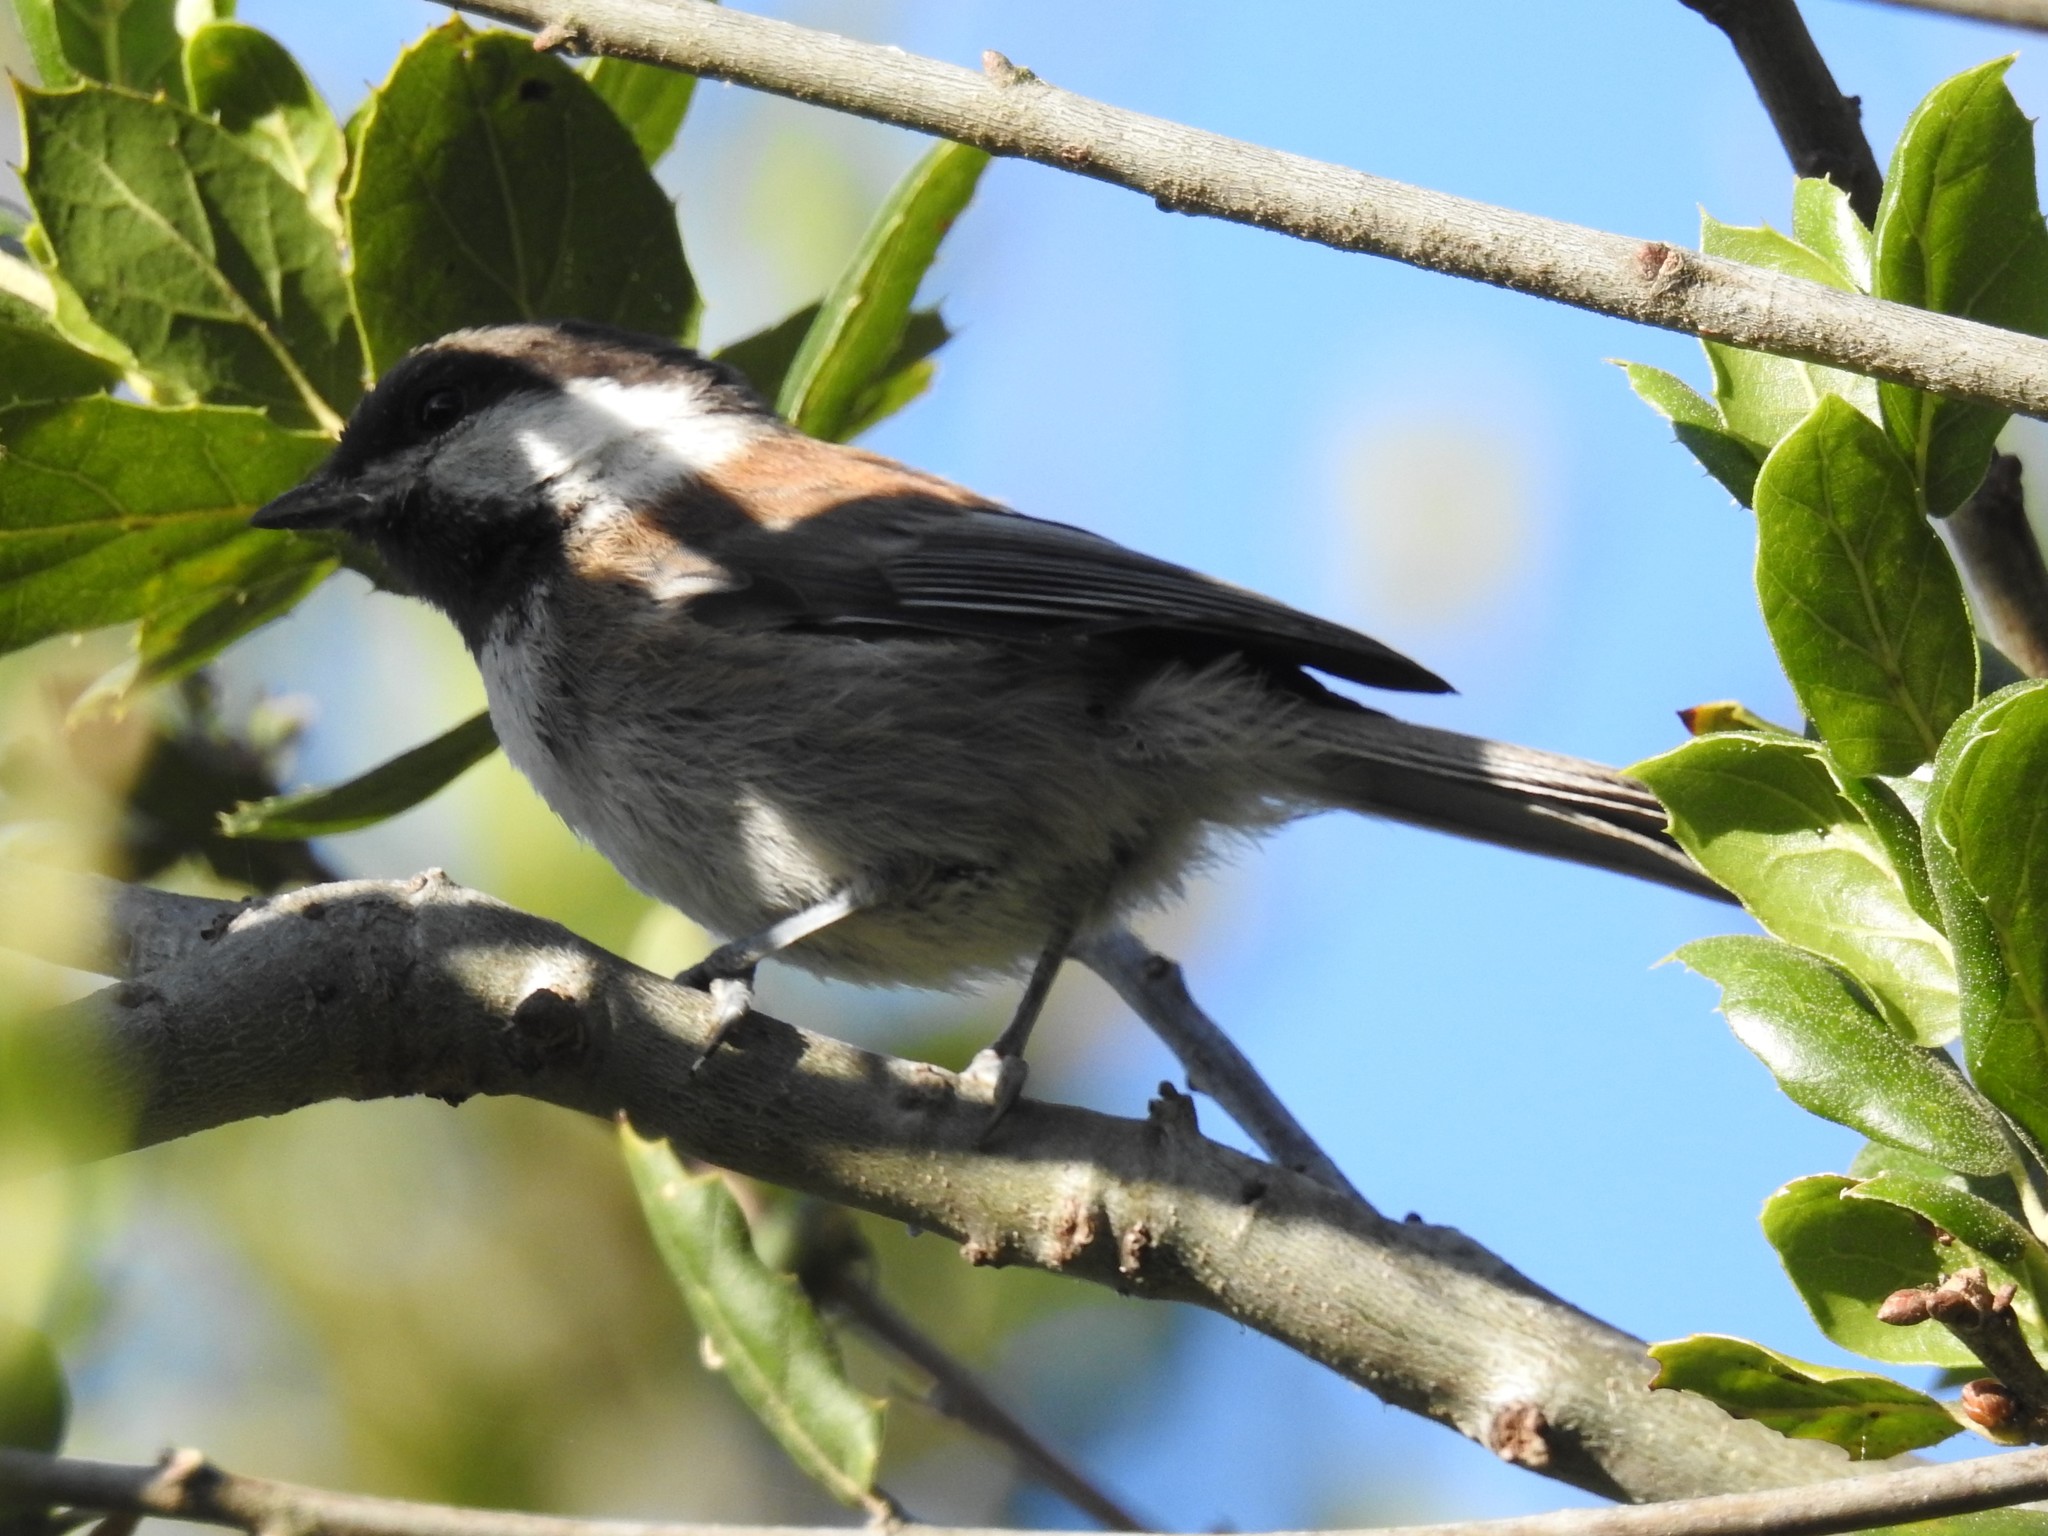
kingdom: Animalia
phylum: Chordata
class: Aves
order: Passeriformes
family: Paridae
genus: Poecile
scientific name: Poecile rufescens
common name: Chestnut-backed chickadee
